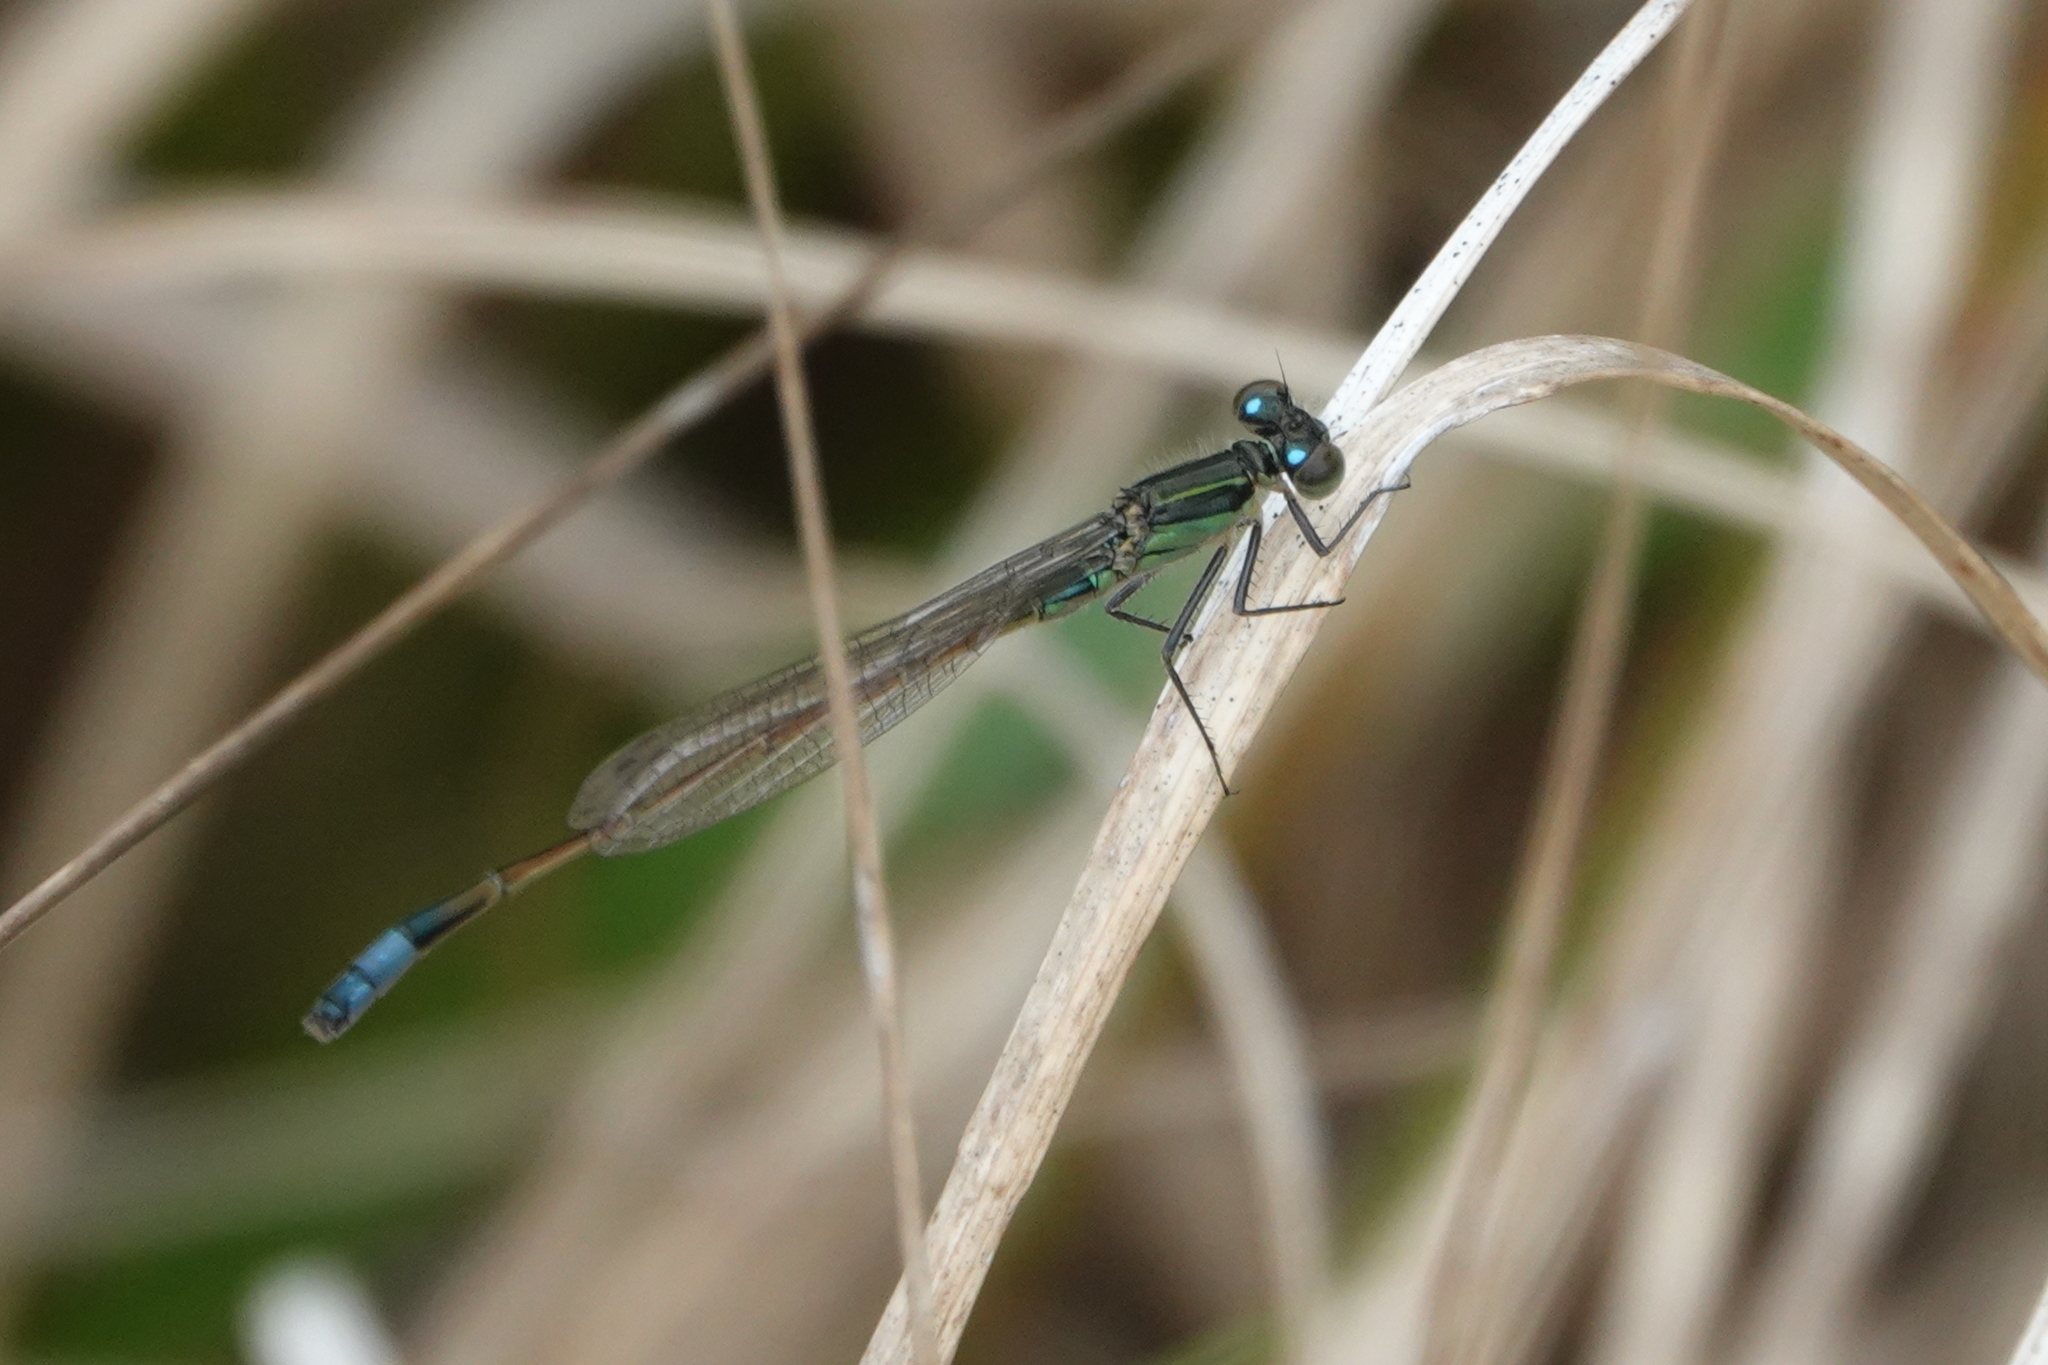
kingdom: Animalia
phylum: Arthropoda
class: Insecta
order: Odonata
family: Coenagrionidae
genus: Ischnura
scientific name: Ischnura ramburii
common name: Rambur's forktail
